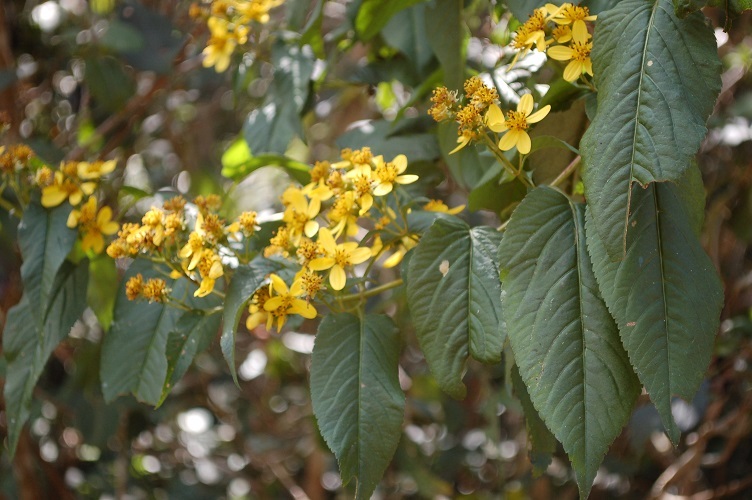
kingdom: Plantae
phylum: Tracheophyta
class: Magnoliopsida
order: Asterales
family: Asteraceae
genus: Bidens
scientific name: Bidens reptans
